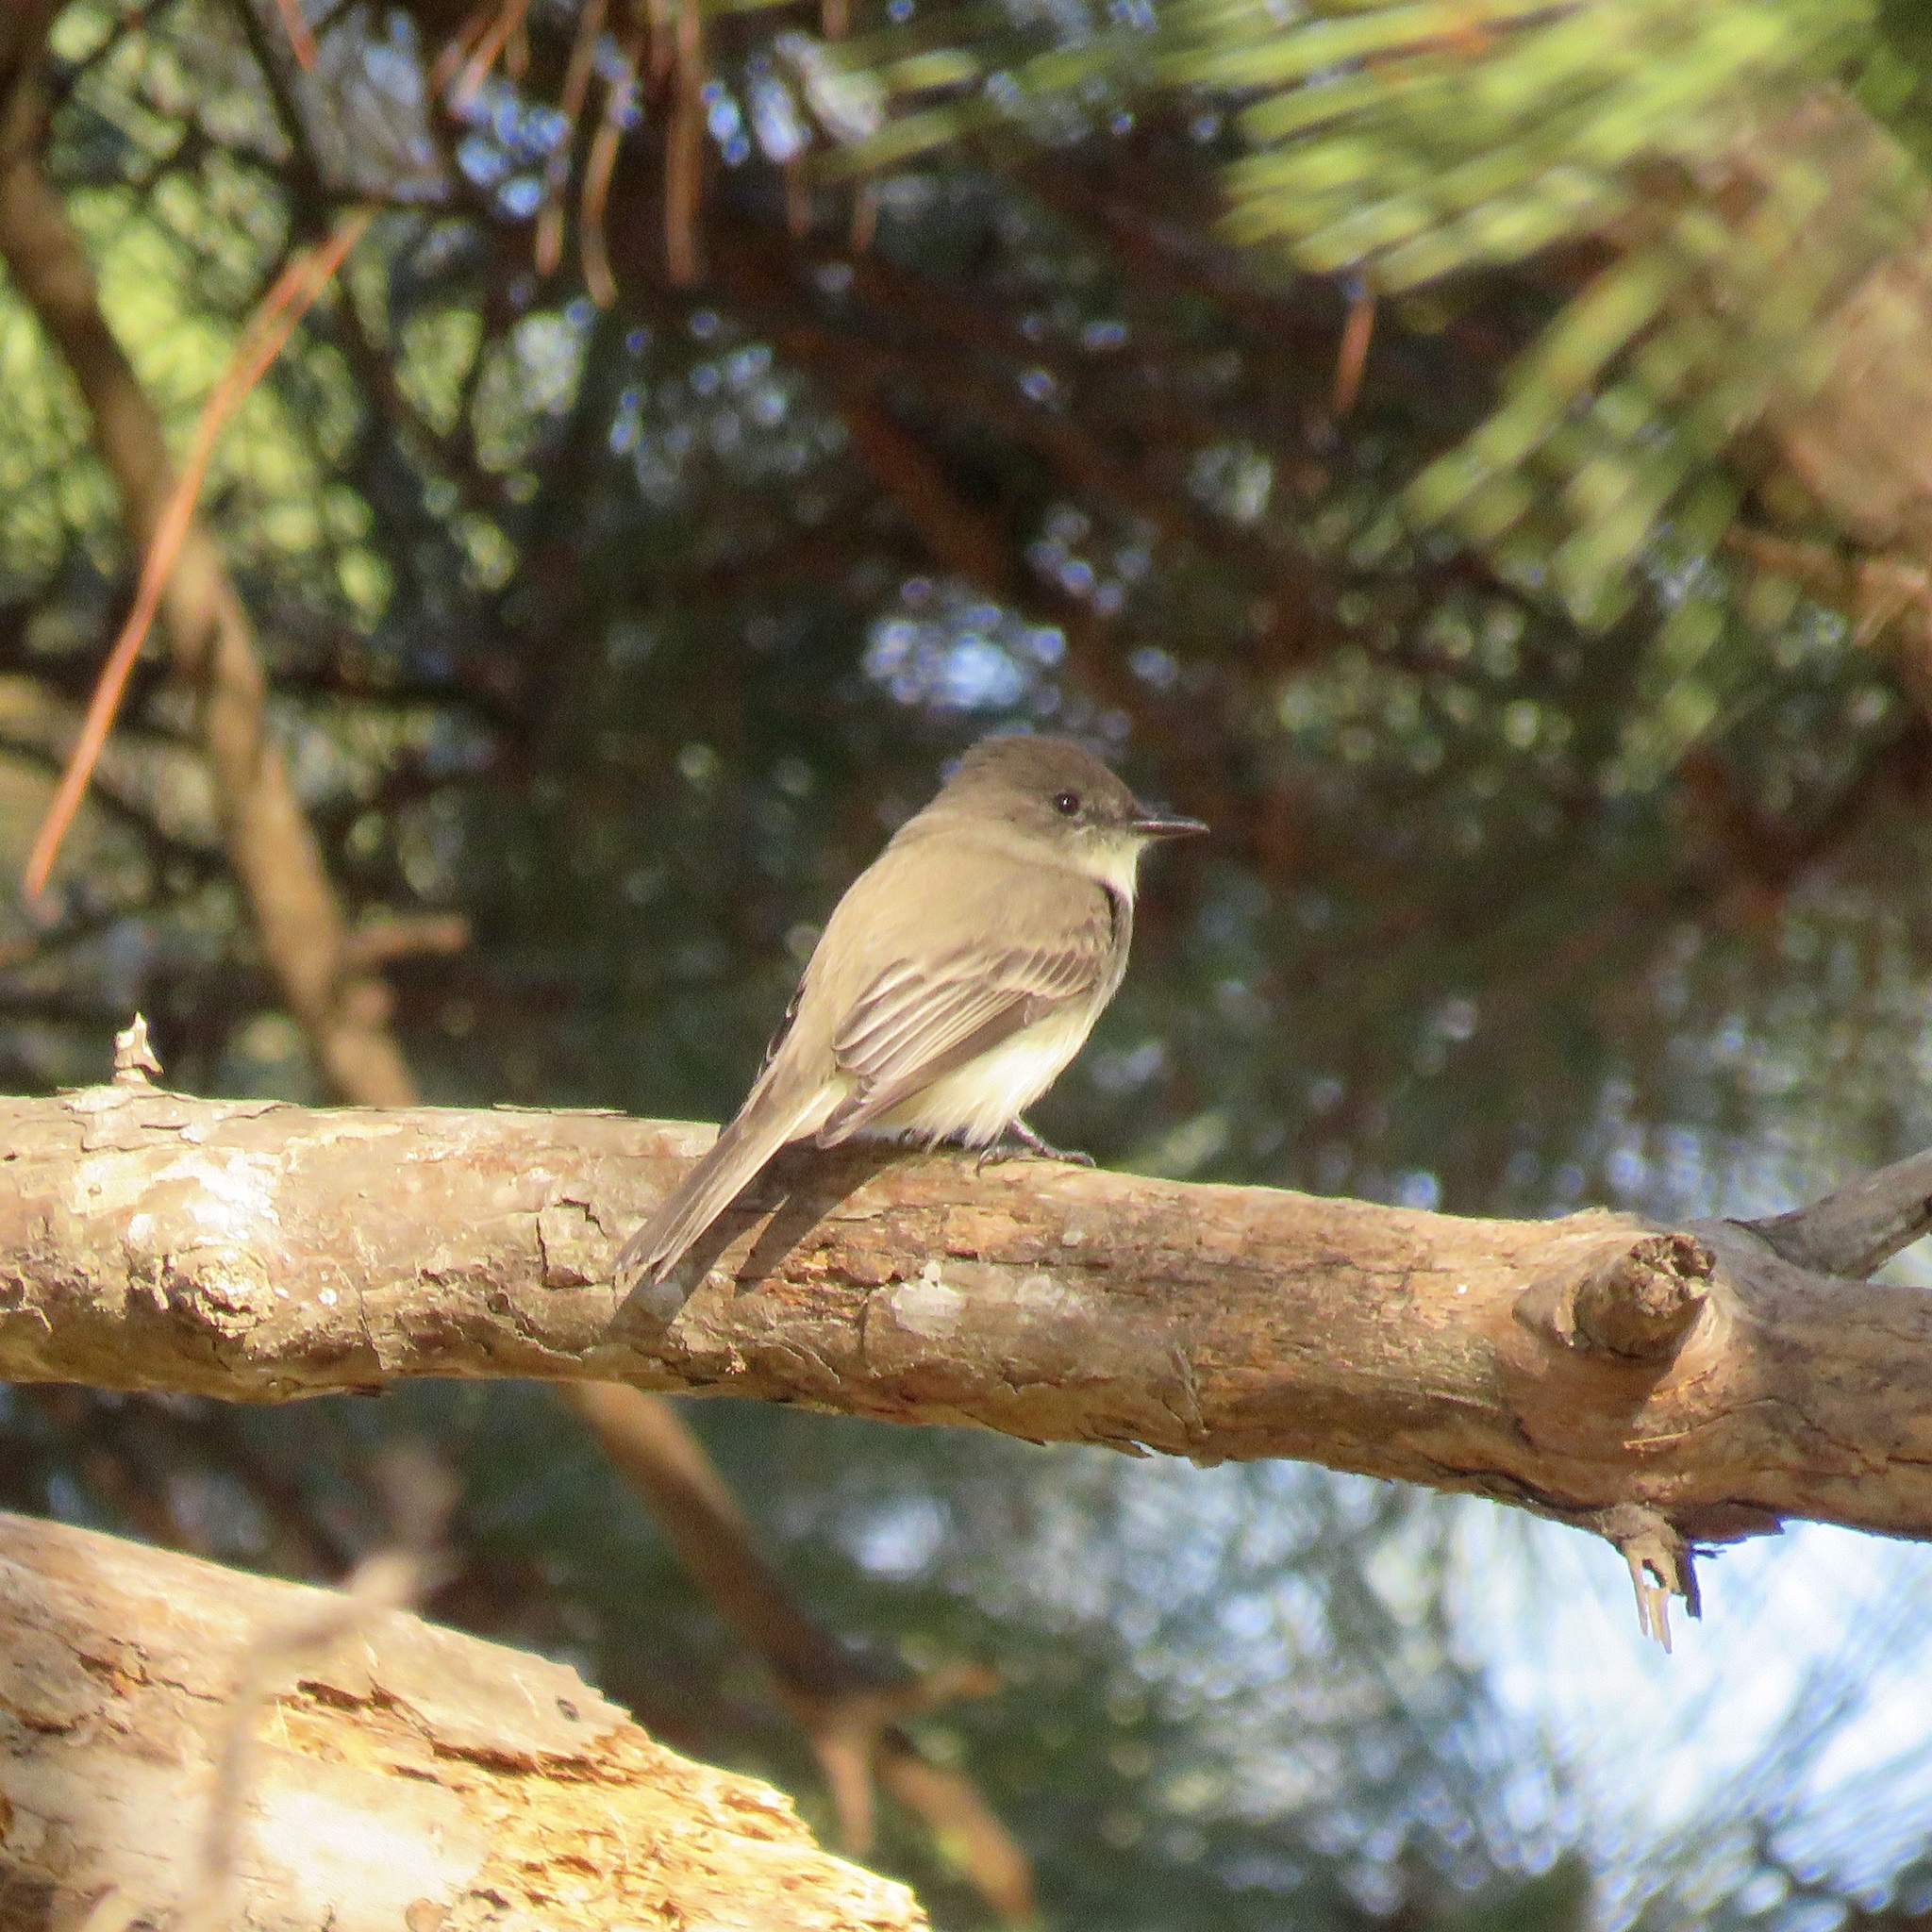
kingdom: Animalia
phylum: Chordata
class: Aves
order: Passeriformes
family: Tyrannidae
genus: Sayornis
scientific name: Sayornis phoebe
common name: Eastern phoebe
